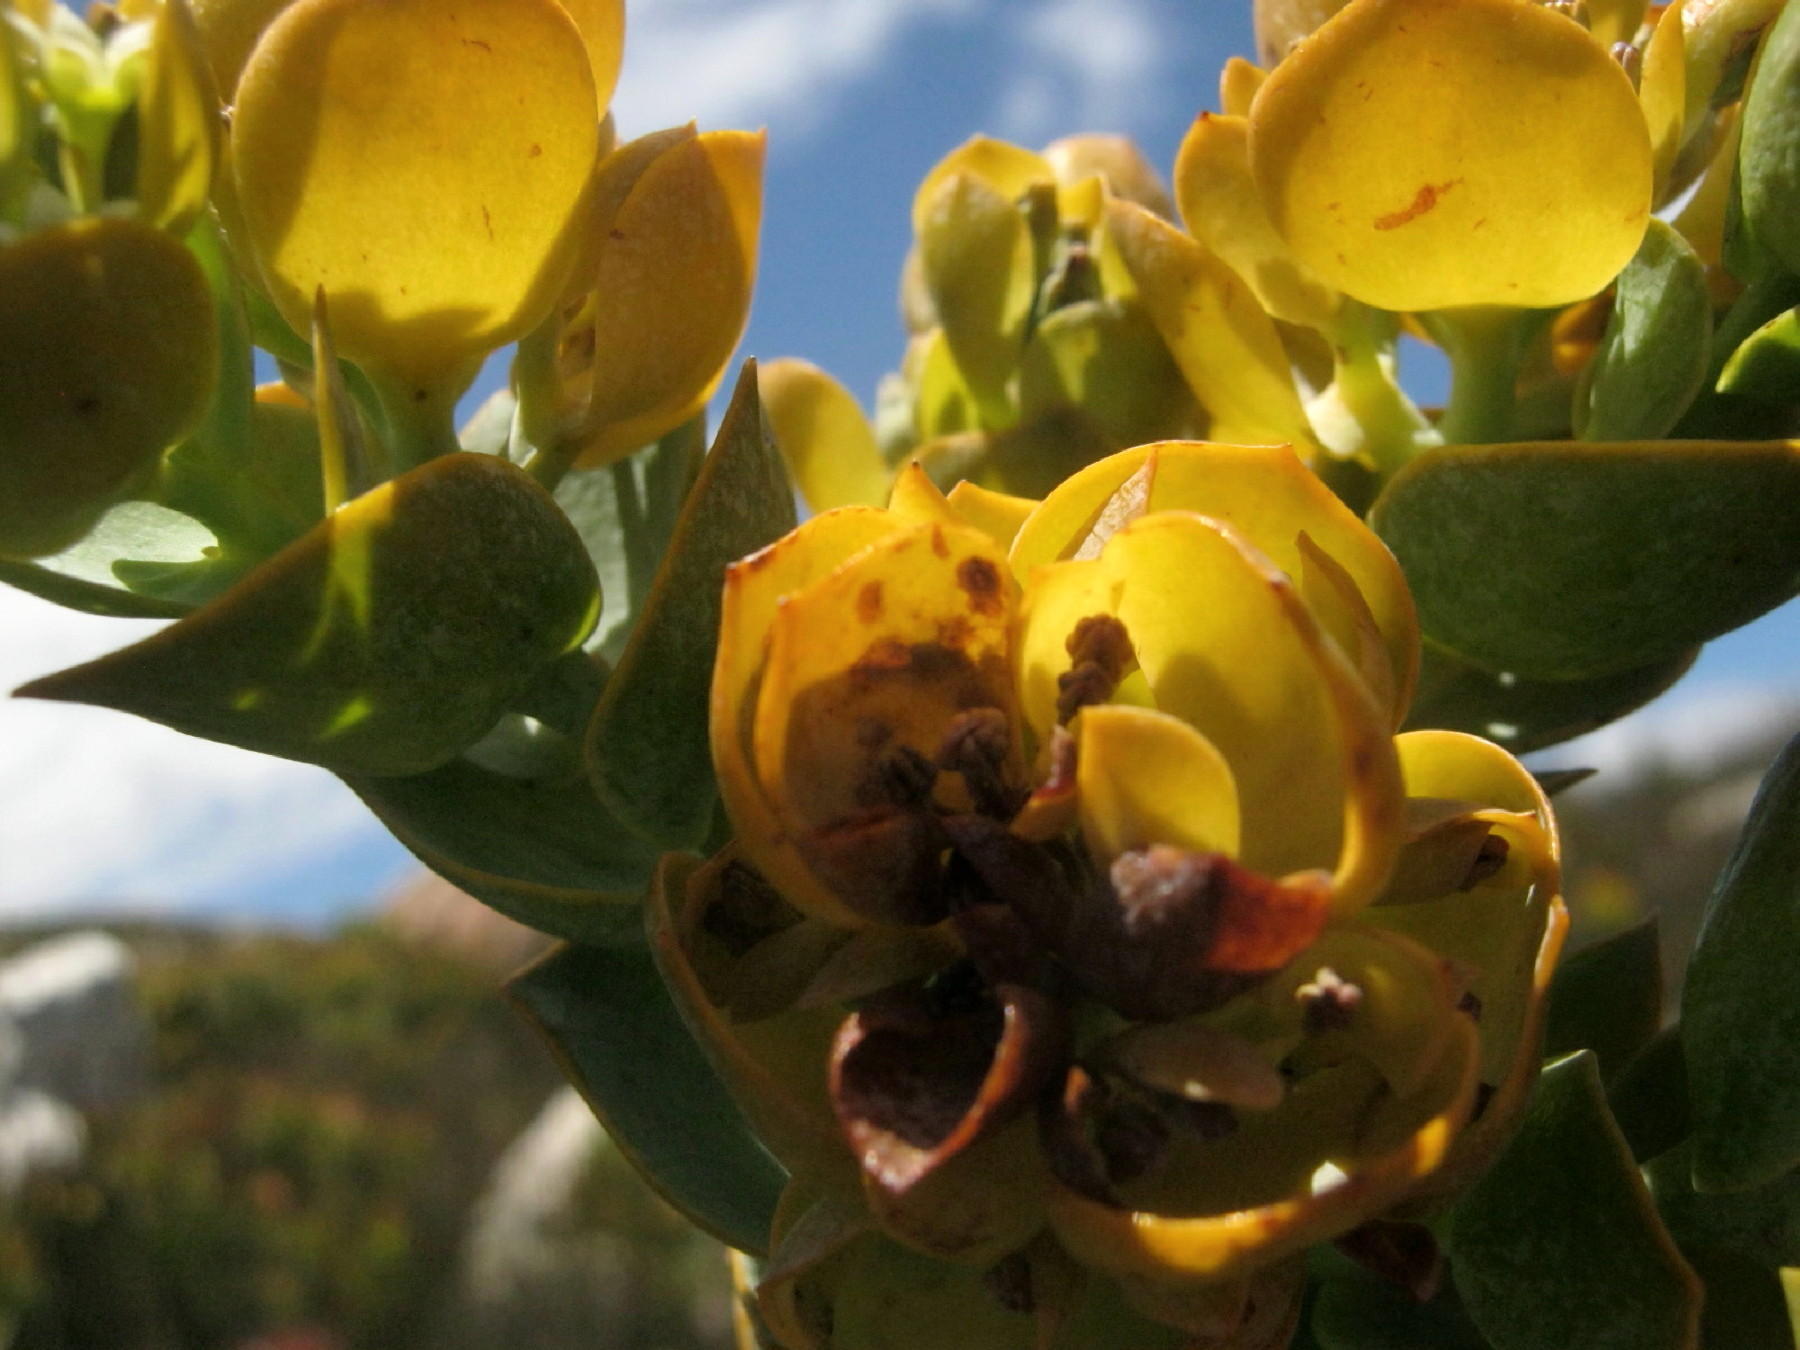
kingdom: Plantae
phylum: Tracheophyta
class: Magnoliopsida
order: Santalales
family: Thesiaceae
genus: Thesium
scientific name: Thesium euphorbioides
